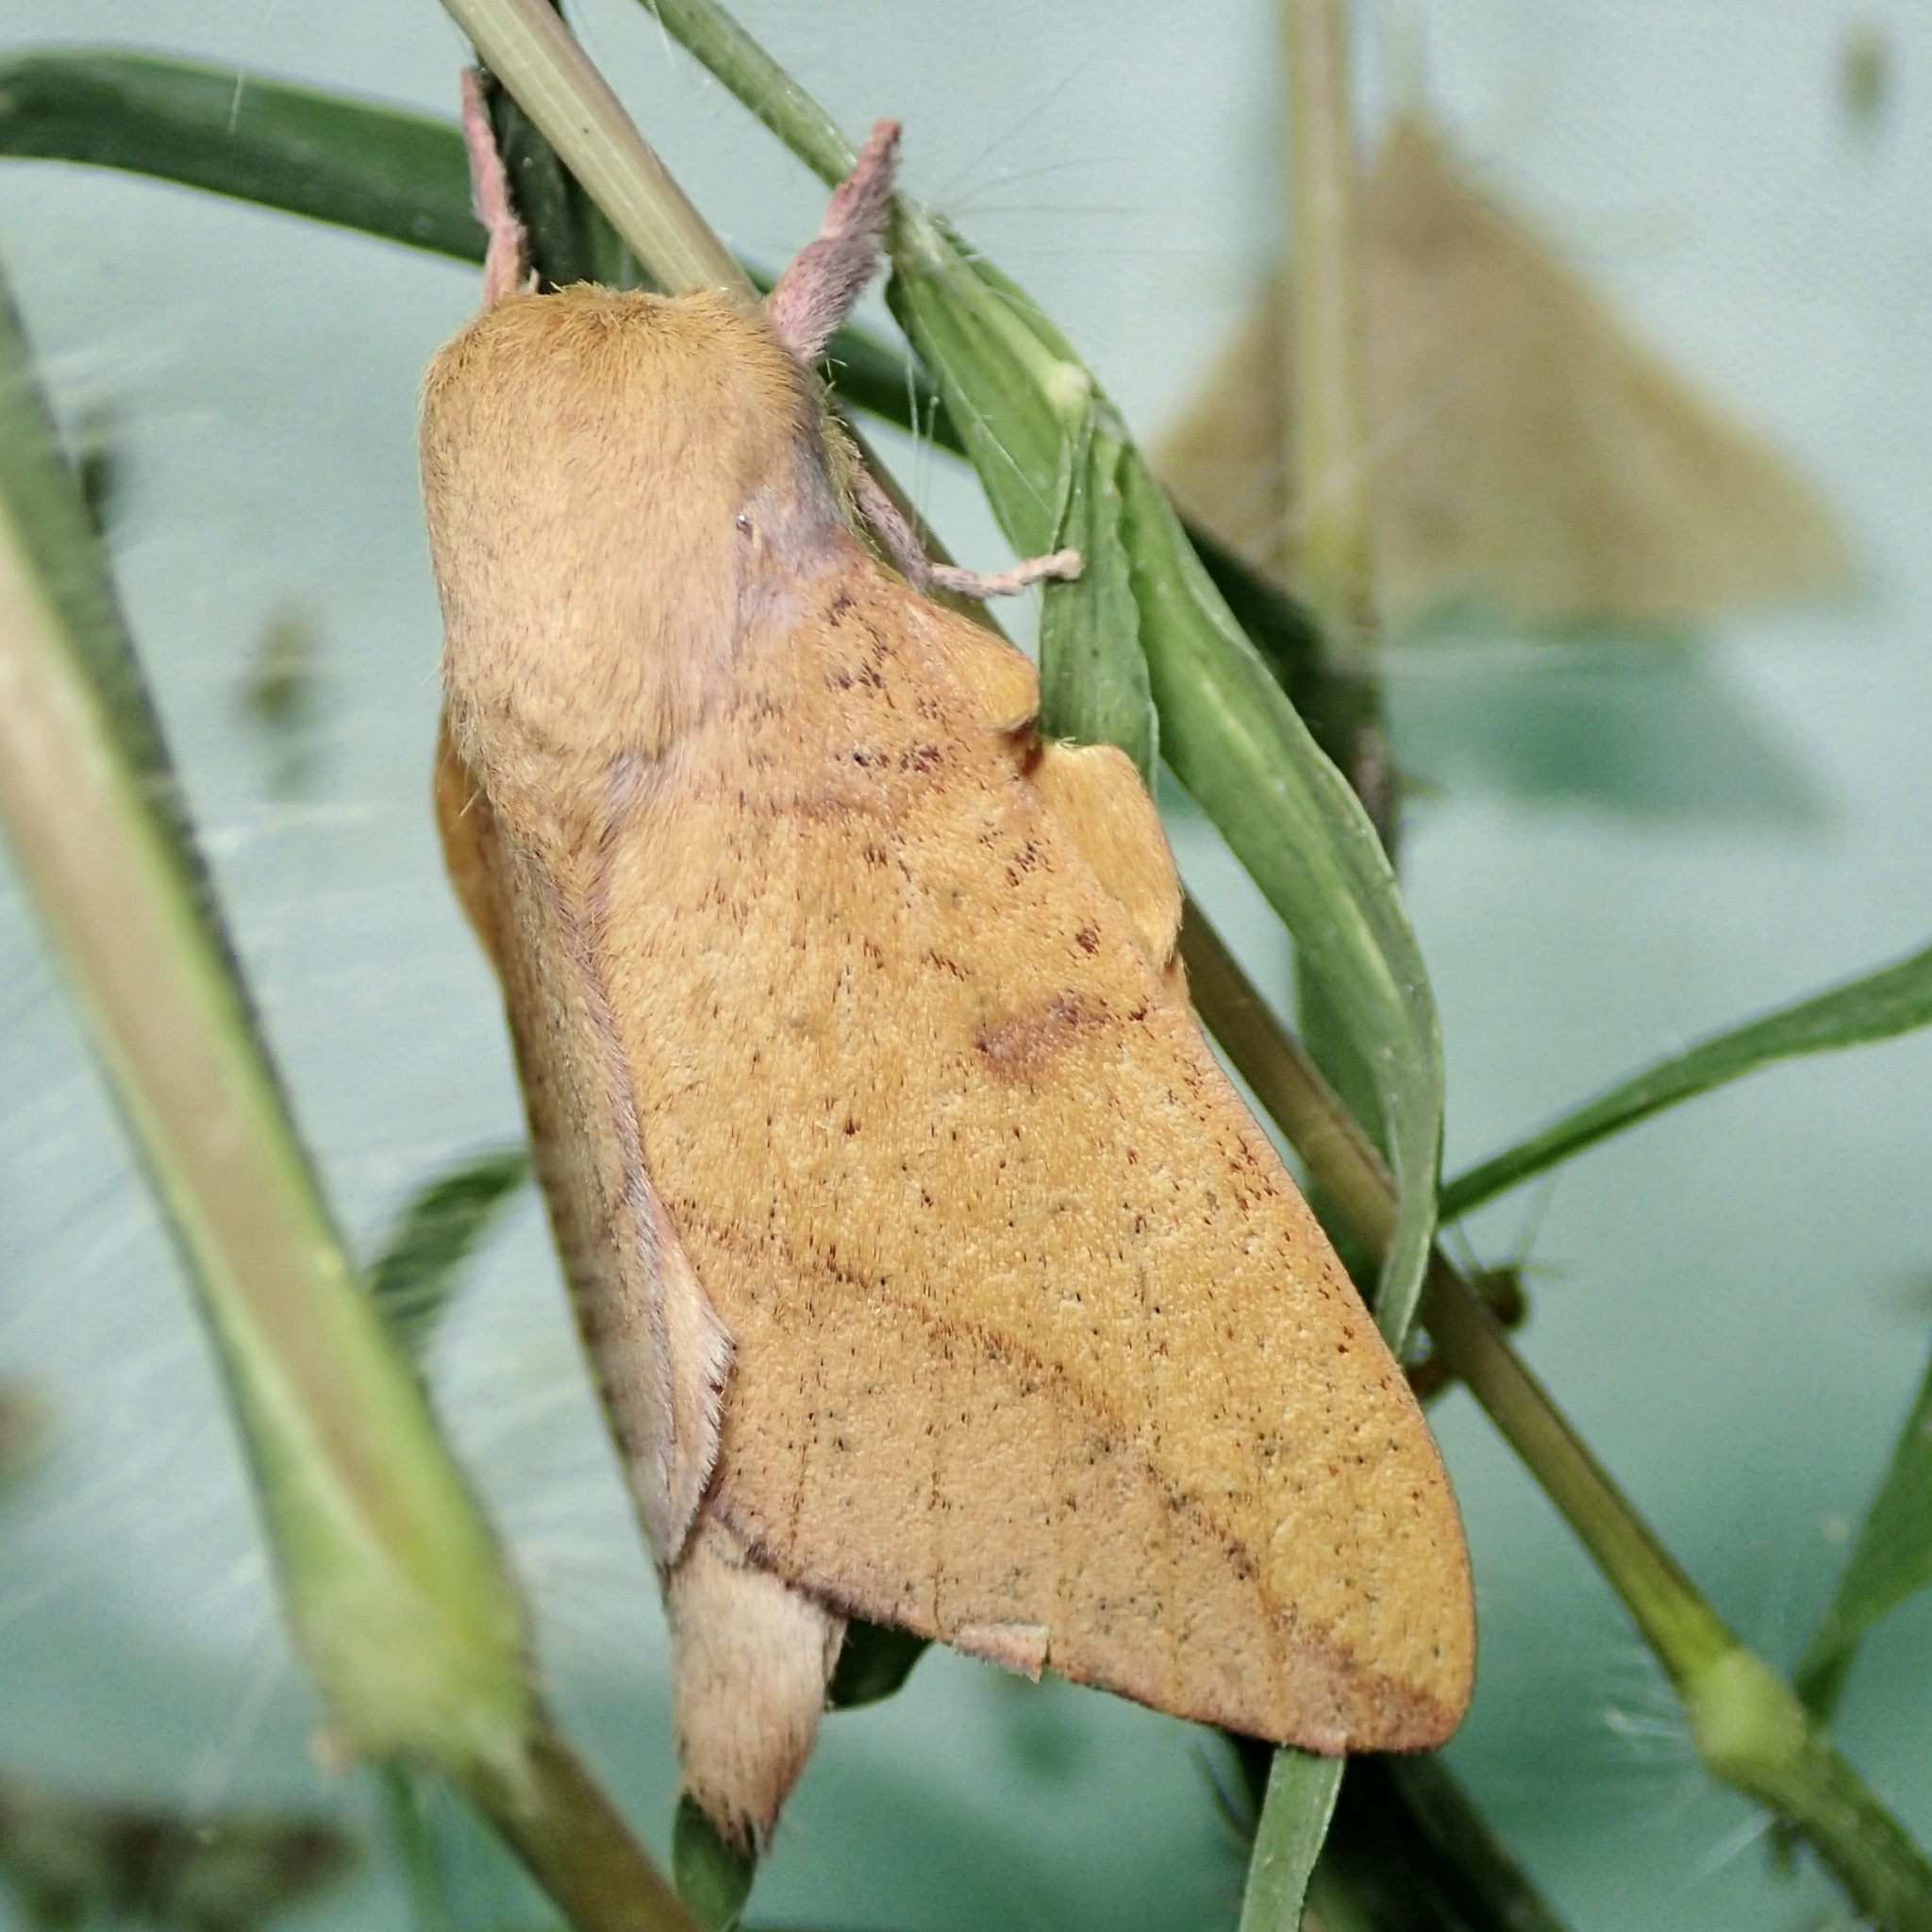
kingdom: Animalia
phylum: Arthropoda
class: Insecta
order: Lepidoptera
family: Saturniidae
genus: Adeloneivaia
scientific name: Adeloneivaia isara
